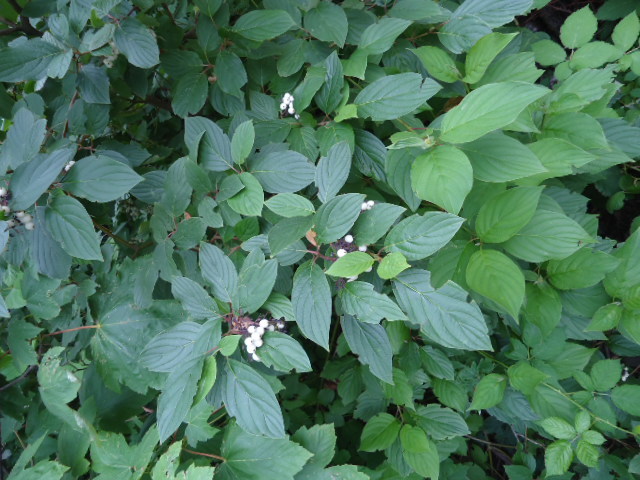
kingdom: Plantae
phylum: Tracheophyta
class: Magnoliopsida
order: Cornales
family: Cornaceae
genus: Cornus
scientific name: Cornus alba
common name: White dogwood
